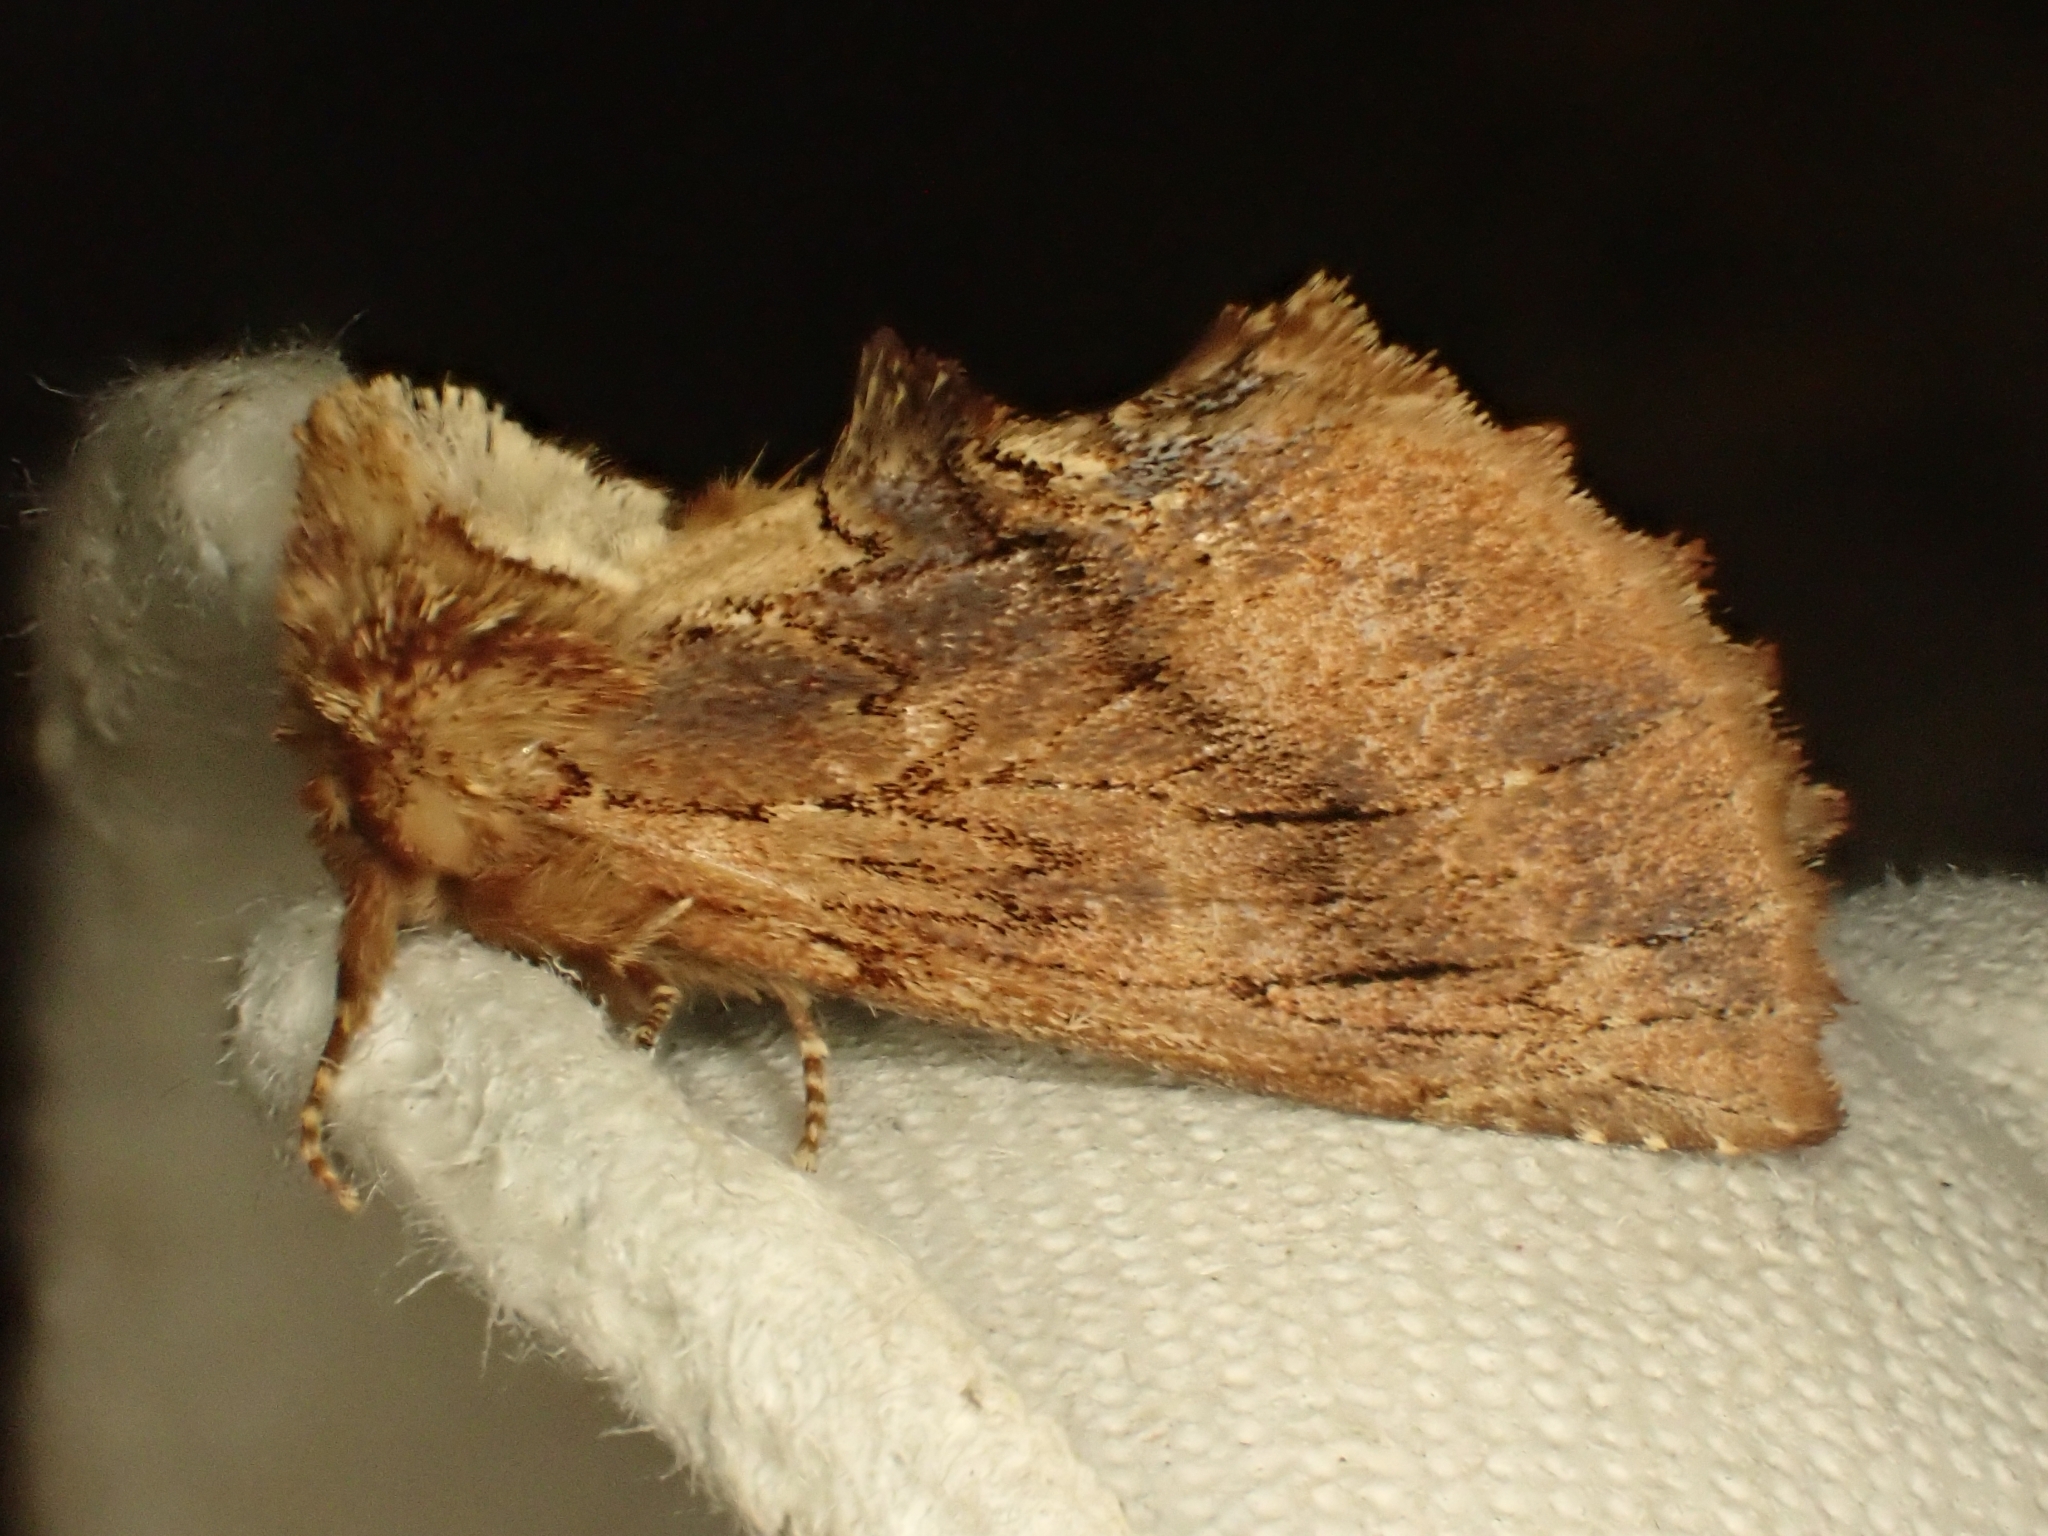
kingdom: Animalia
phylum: Arthropoda
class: Insecta
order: Lepidoptera
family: Notodontidae
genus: Ptilodon
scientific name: Ptilodon capucina
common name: Coxcomb prominent
